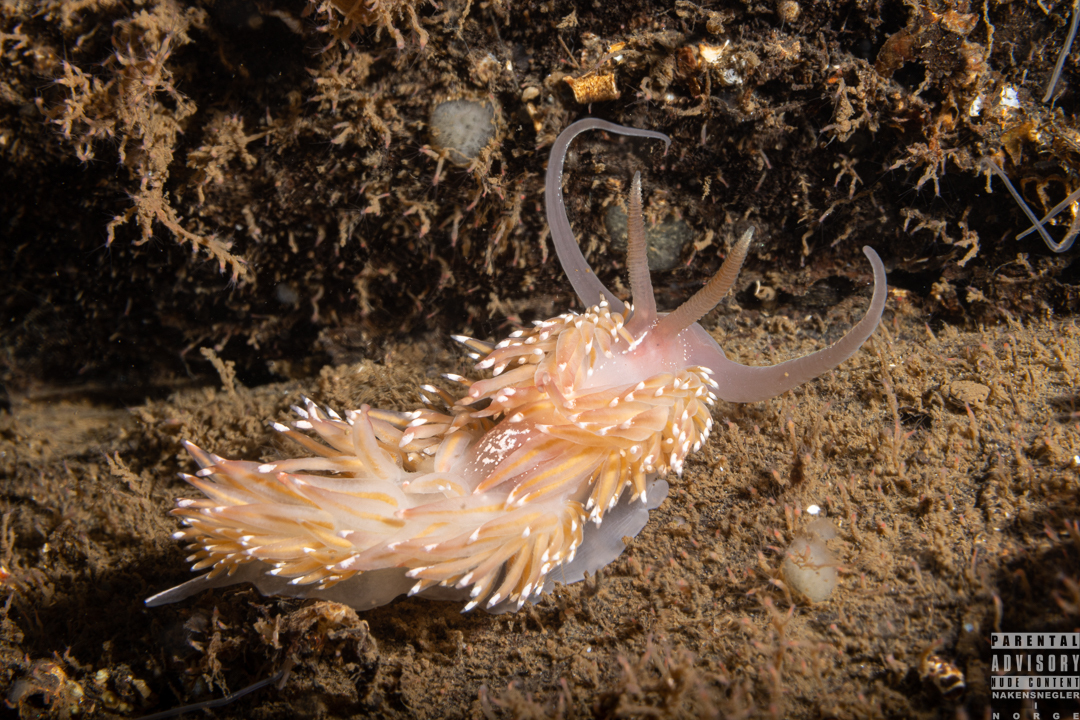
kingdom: Animalia
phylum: Mollusca
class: Gastropoda
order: Nudibranchia
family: Facelinidae
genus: Facelina
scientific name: Facelina bostoniensis
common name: Boston facelina
